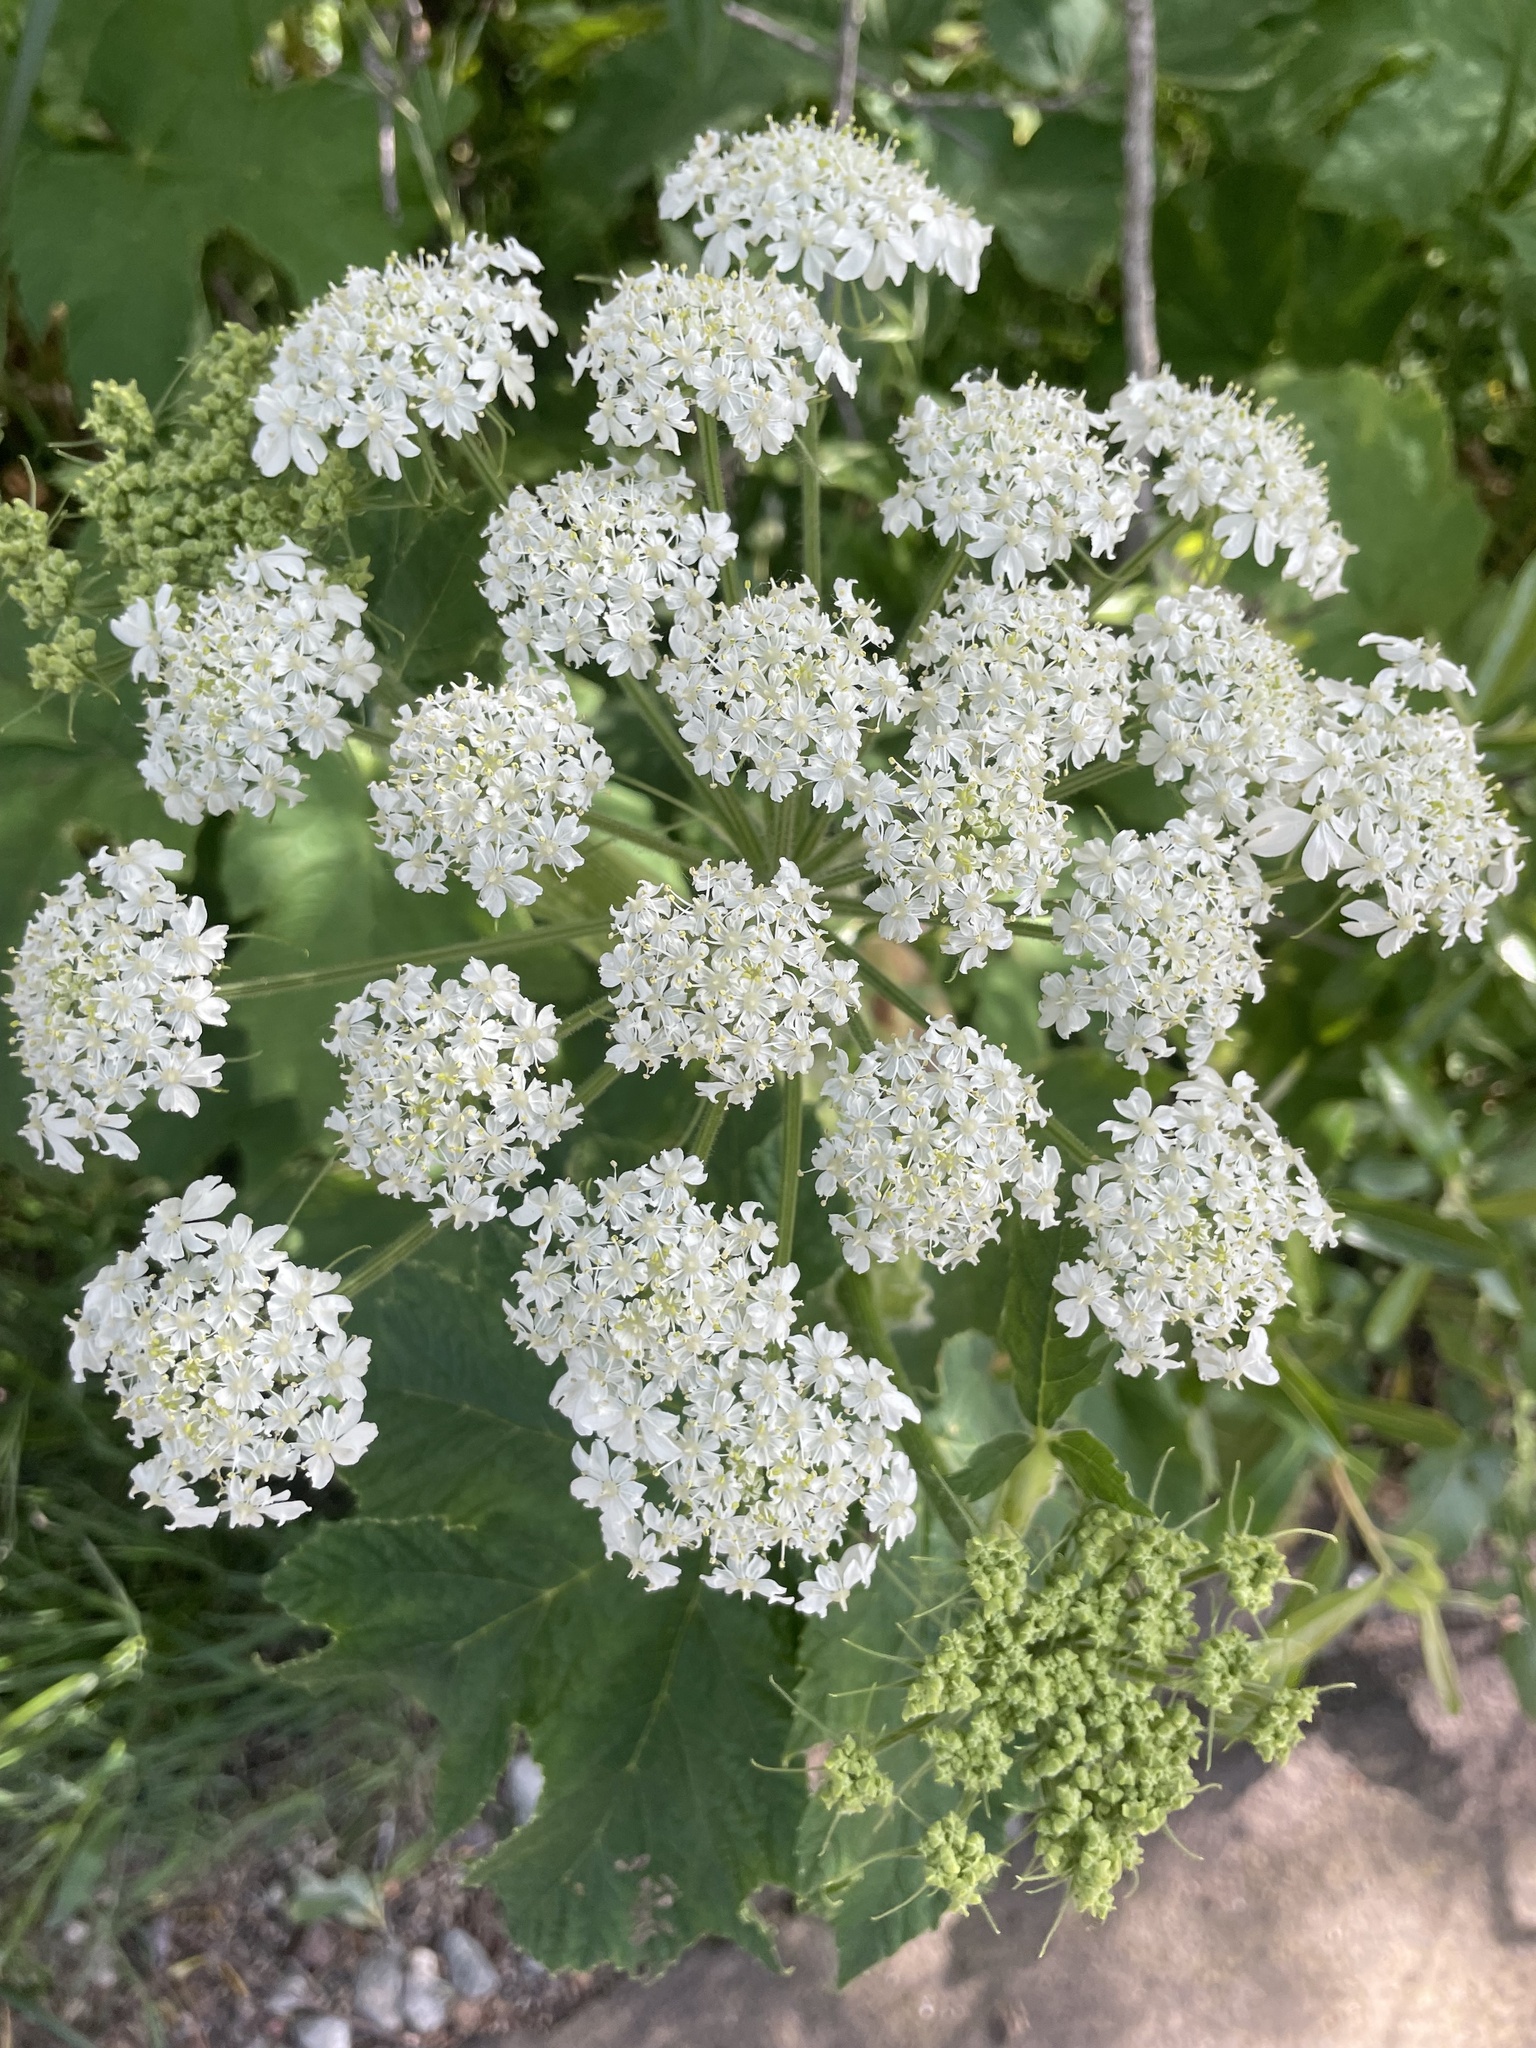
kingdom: Plantae
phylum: Tracheophyta
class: Magnoliopsida
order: Apiales
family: Apiaceae
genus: Heracleum
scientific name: Heracleum maximum
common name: American cow parsnip
